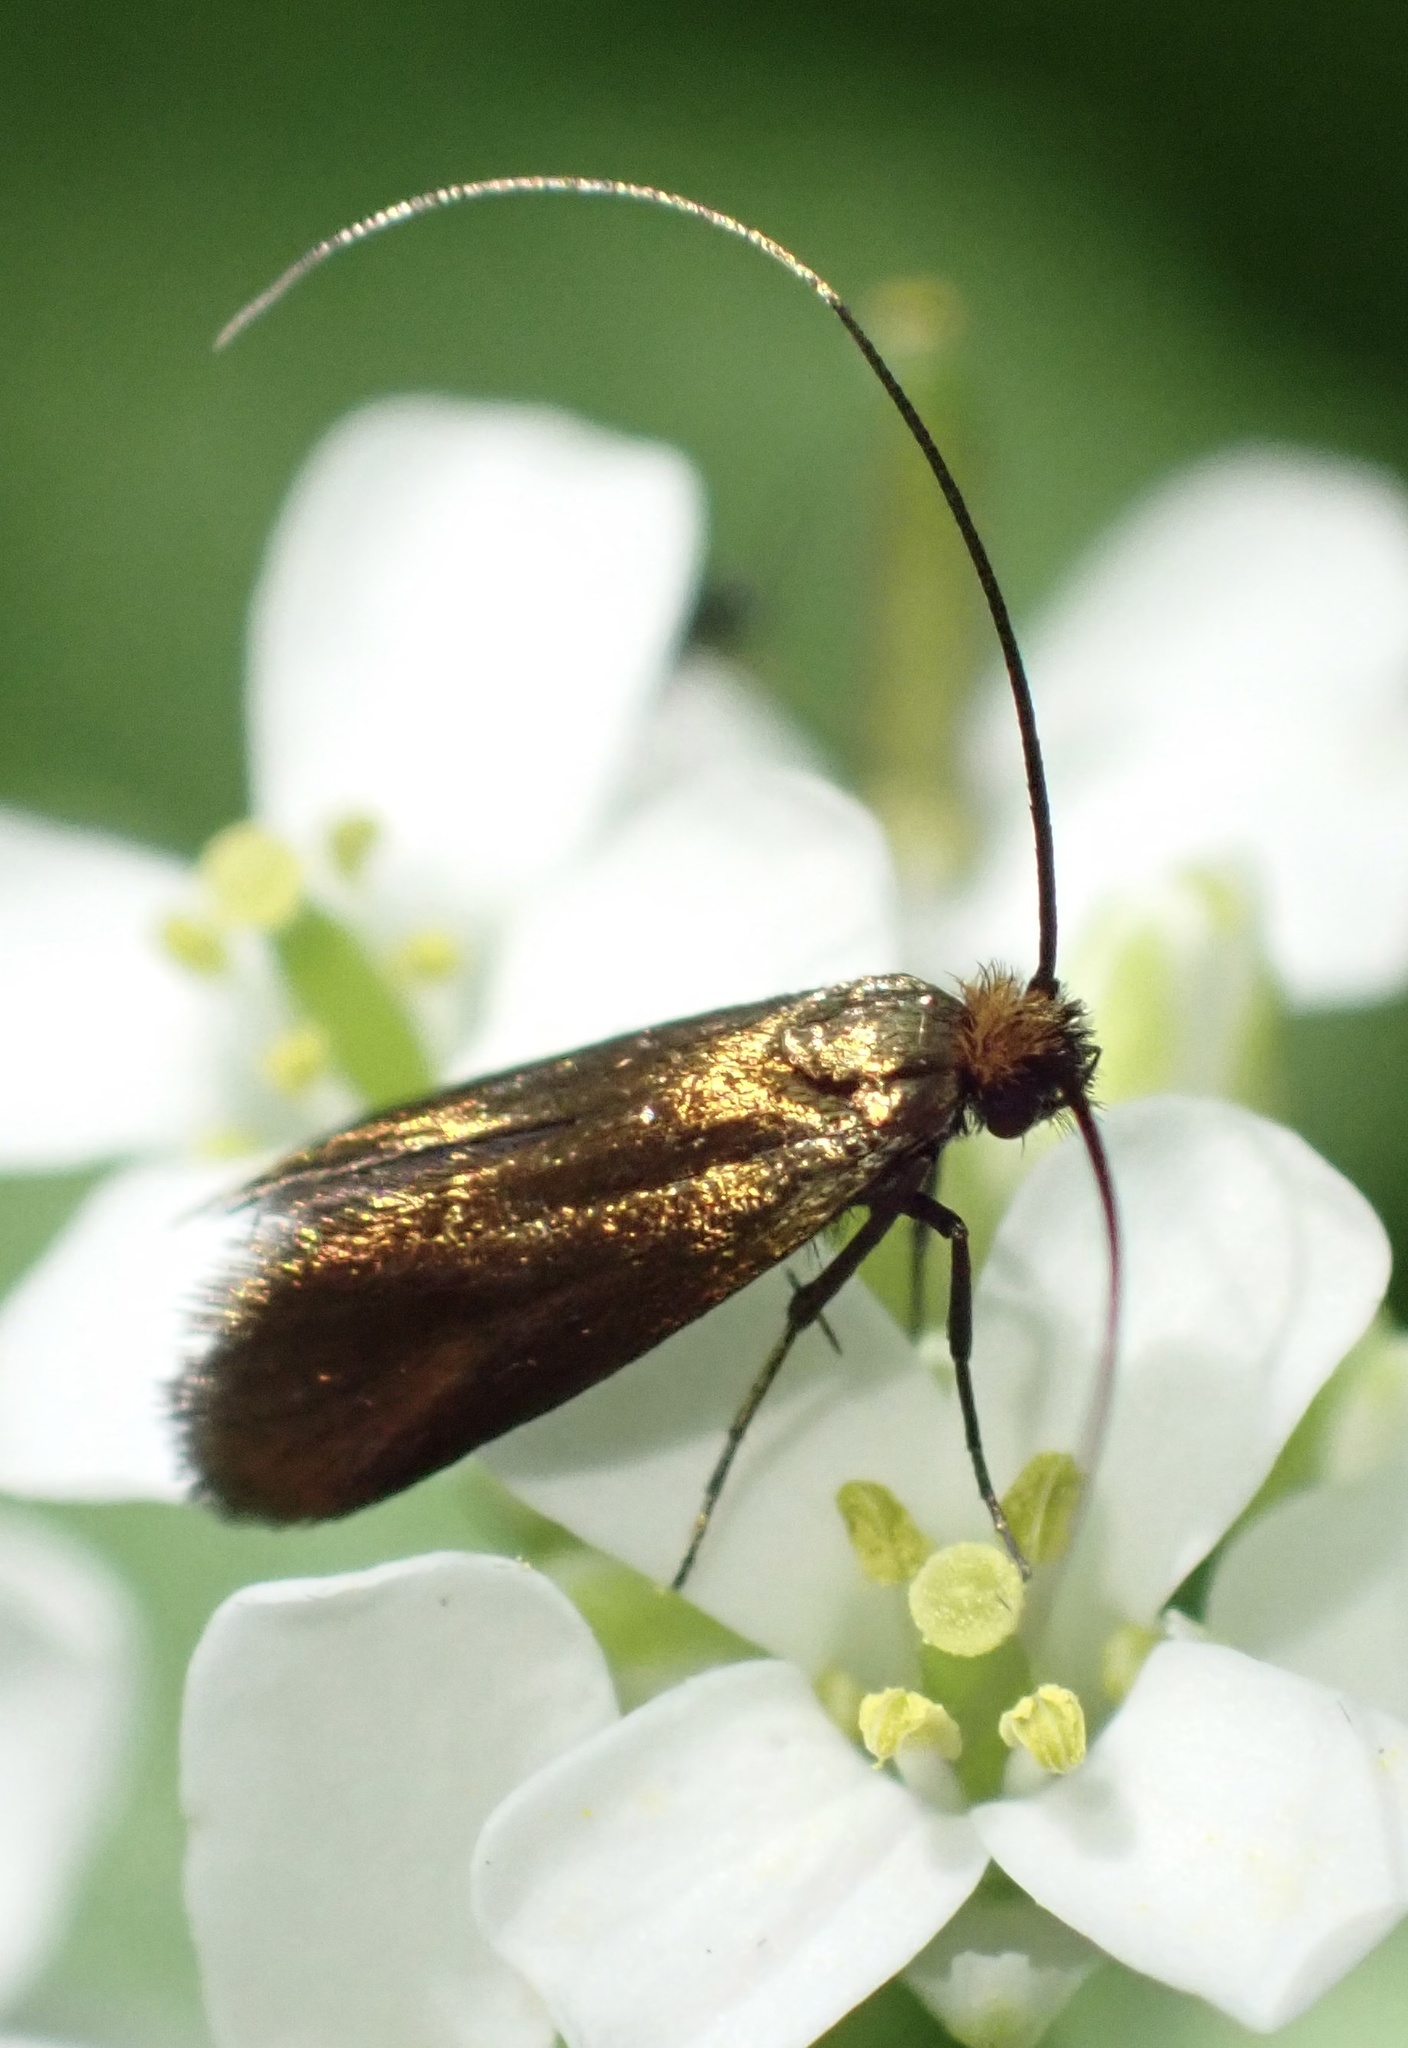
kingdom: Animalia
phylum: Arthropoda
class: Insecta
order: Lepidoptera
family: Adelidae
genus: Cauchas
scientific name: Cauchas rufimitrella
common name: Meadow long-horn
